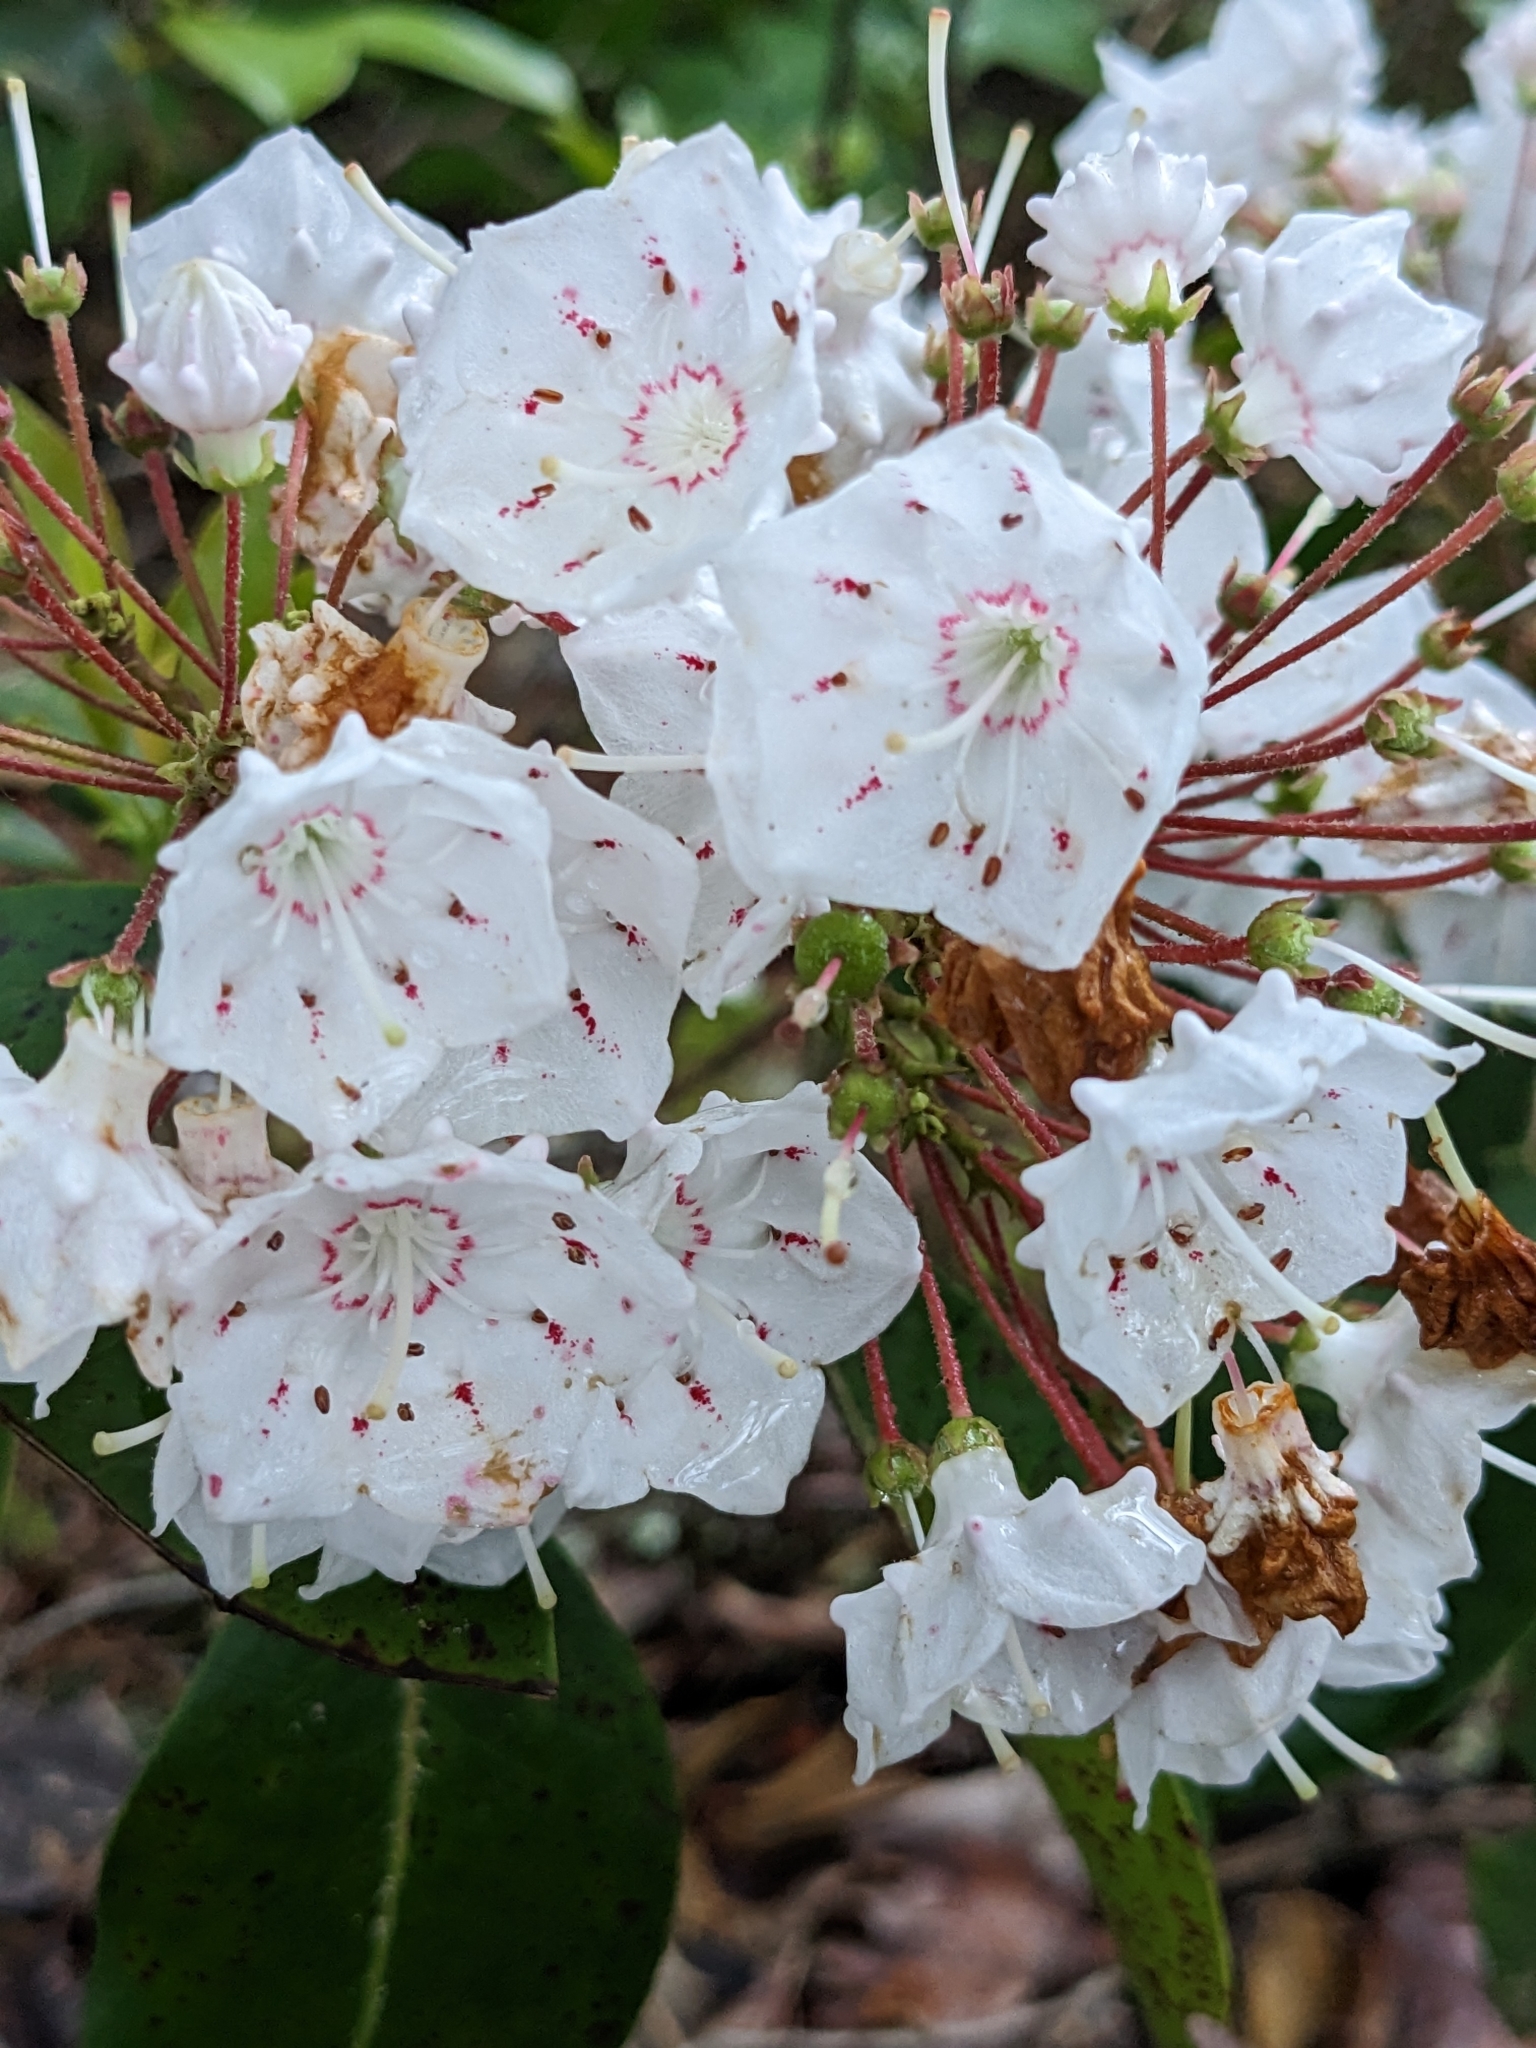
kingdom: Plantae
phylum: Tracheophyta
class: Magnoliopsida
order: Ericales
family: Ericaceae
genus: Kalmia
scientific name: Kalmia latifolia
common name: Mountain-laurel
